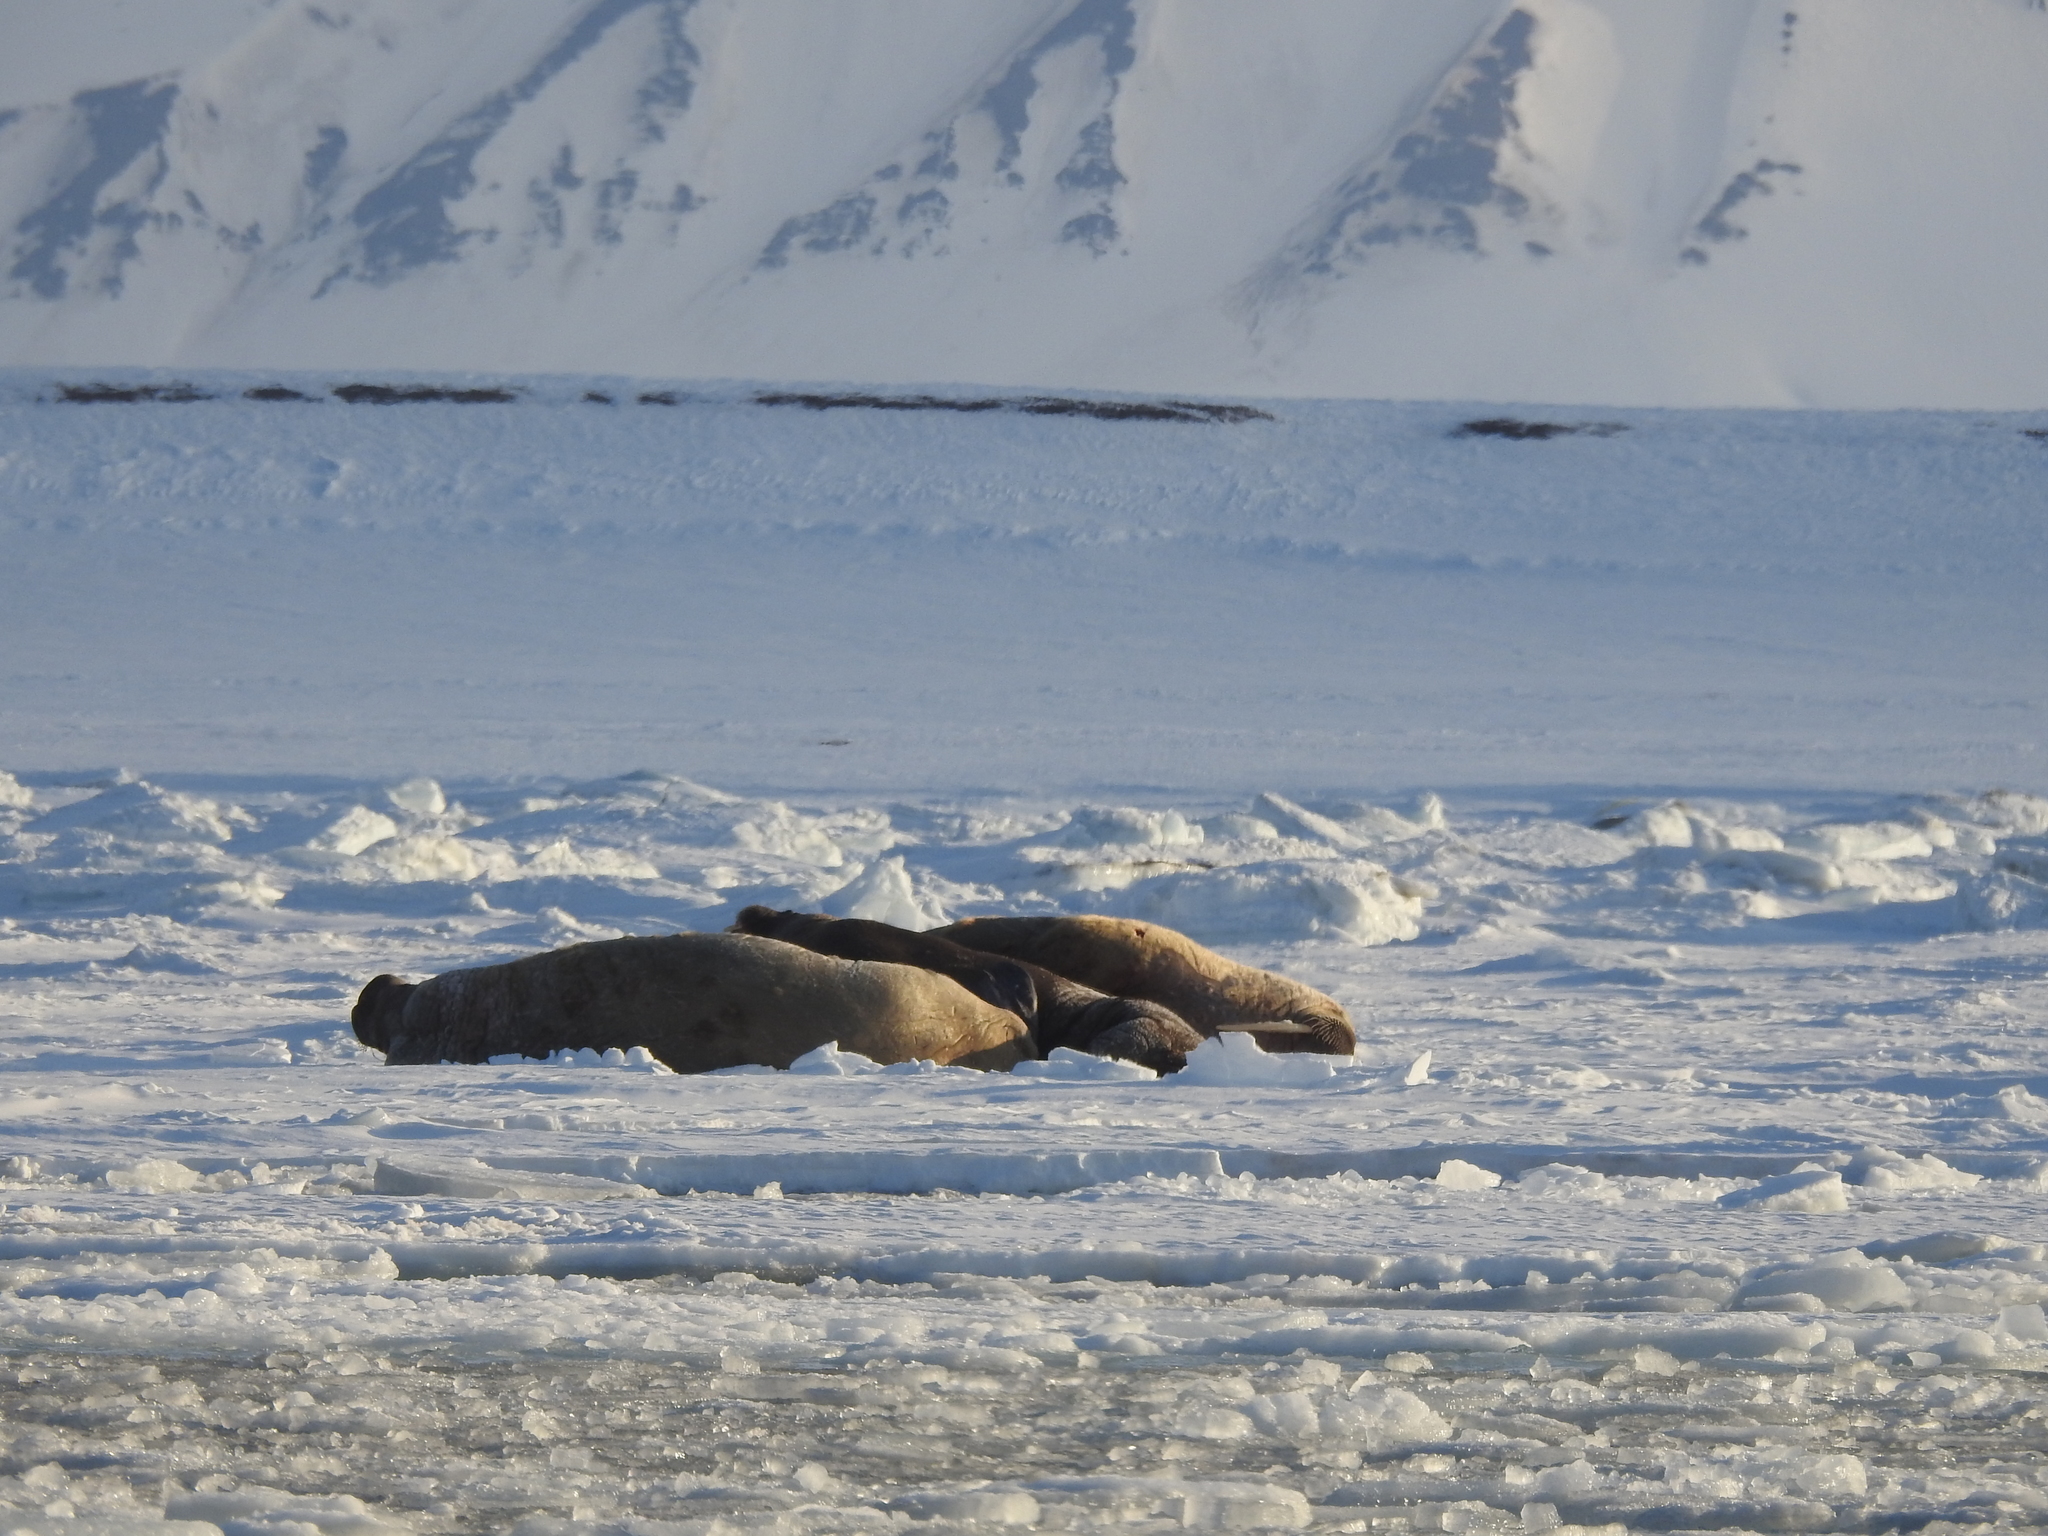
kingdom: Animalia
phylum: Chordata
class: Mammalia
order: Carnivora
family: Odobenidae
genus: Odobenus
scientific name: Odobenus rosmarus
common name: Walrus
